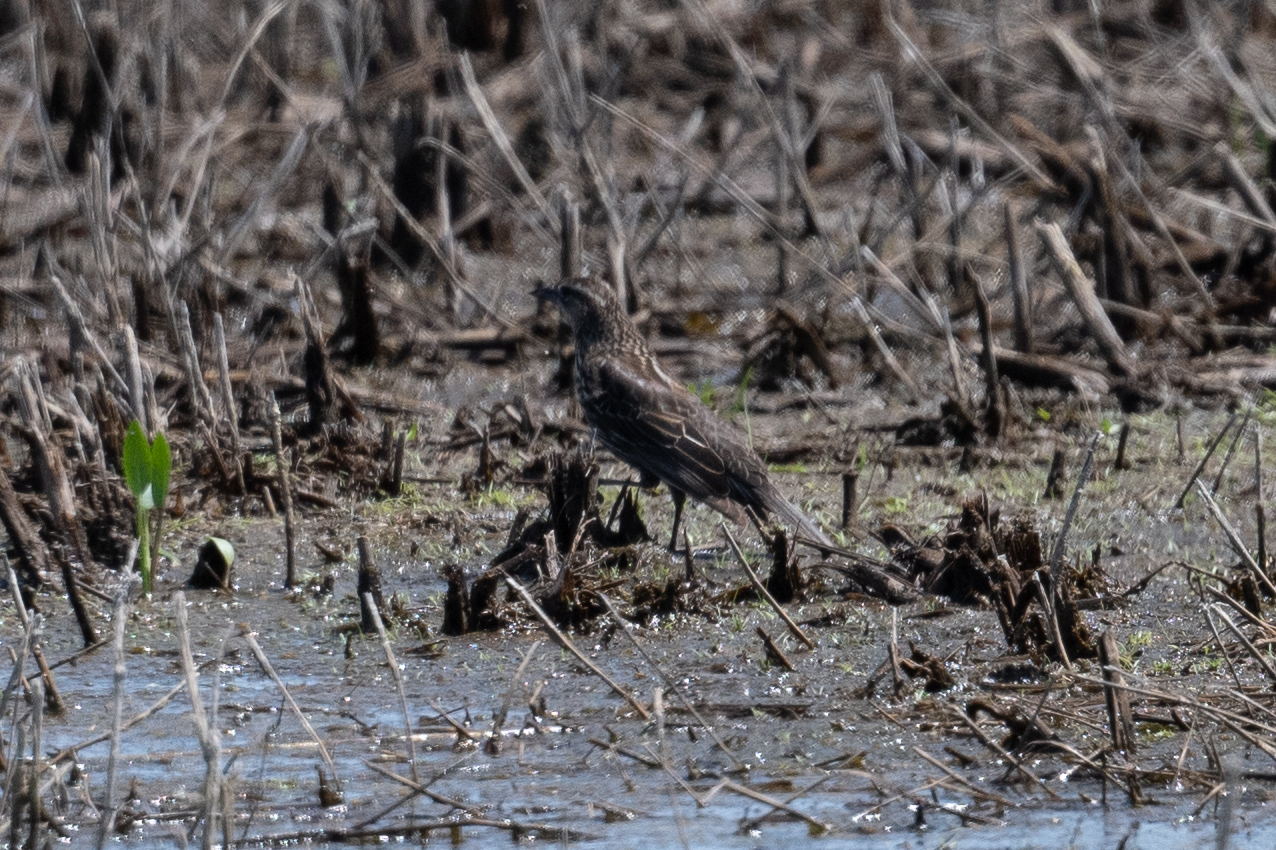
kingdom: Animalia
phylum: Chordata
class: Aves
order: Passeriformes
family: Icteridae
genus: Agelaius
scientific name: Agelaius phoeniceus
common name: Red-winged blackbird
